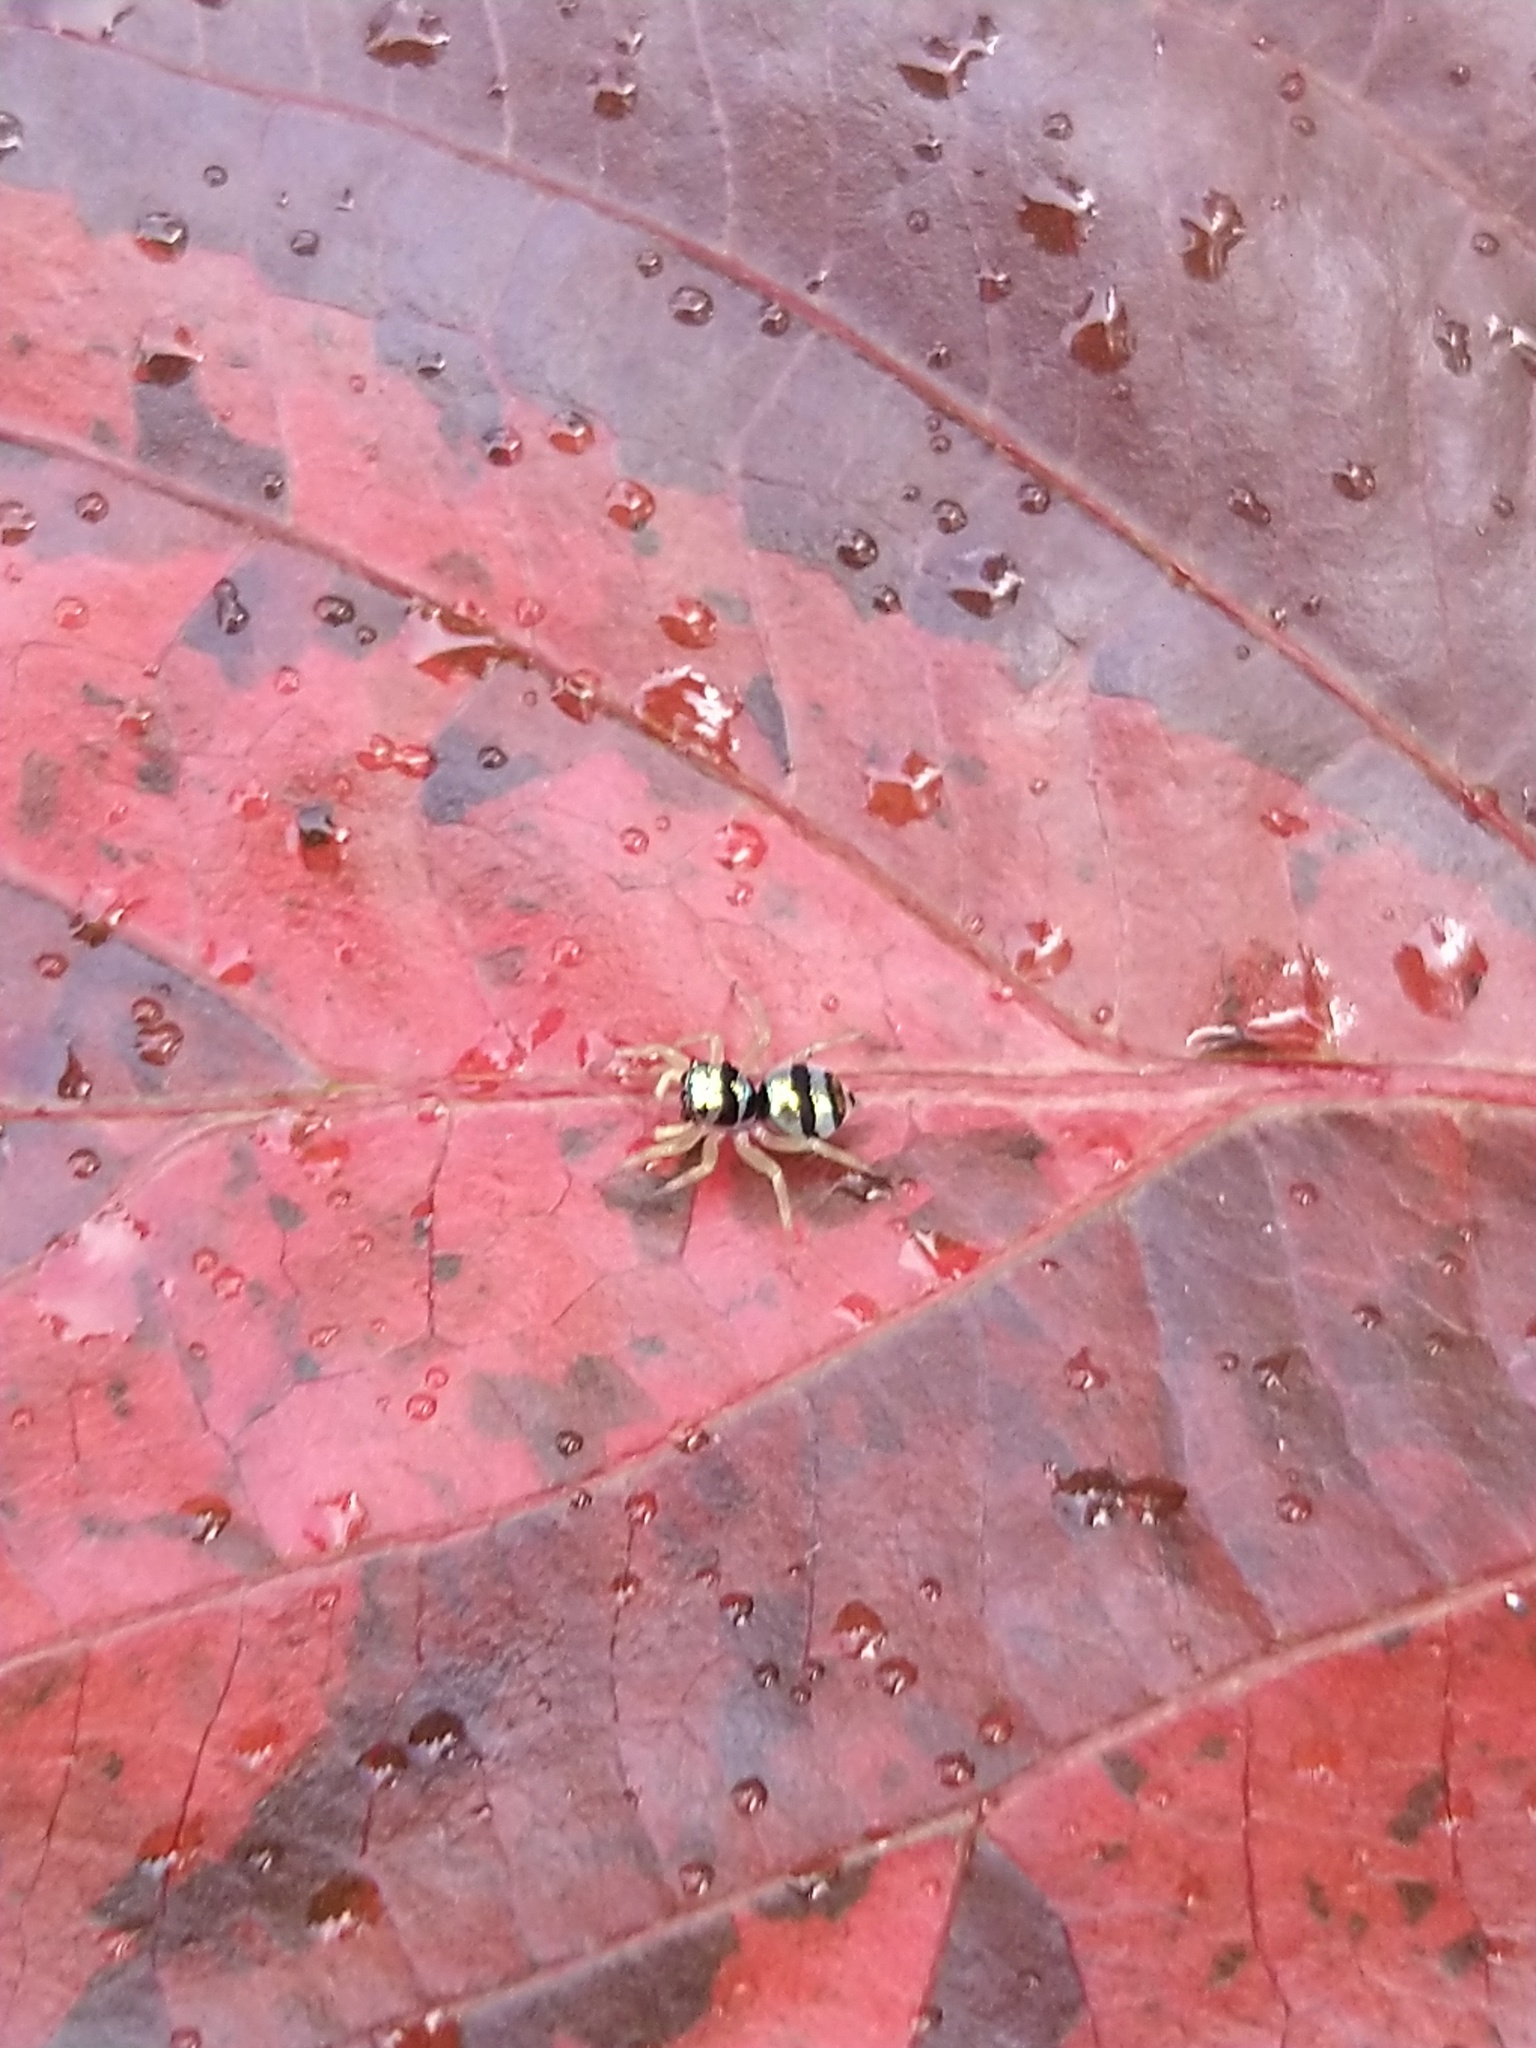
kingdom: Animalia
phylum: Arthropoda
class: Arachnida
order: Araneae
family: Salticidae
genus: Phintella
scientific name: Phintella vittata
